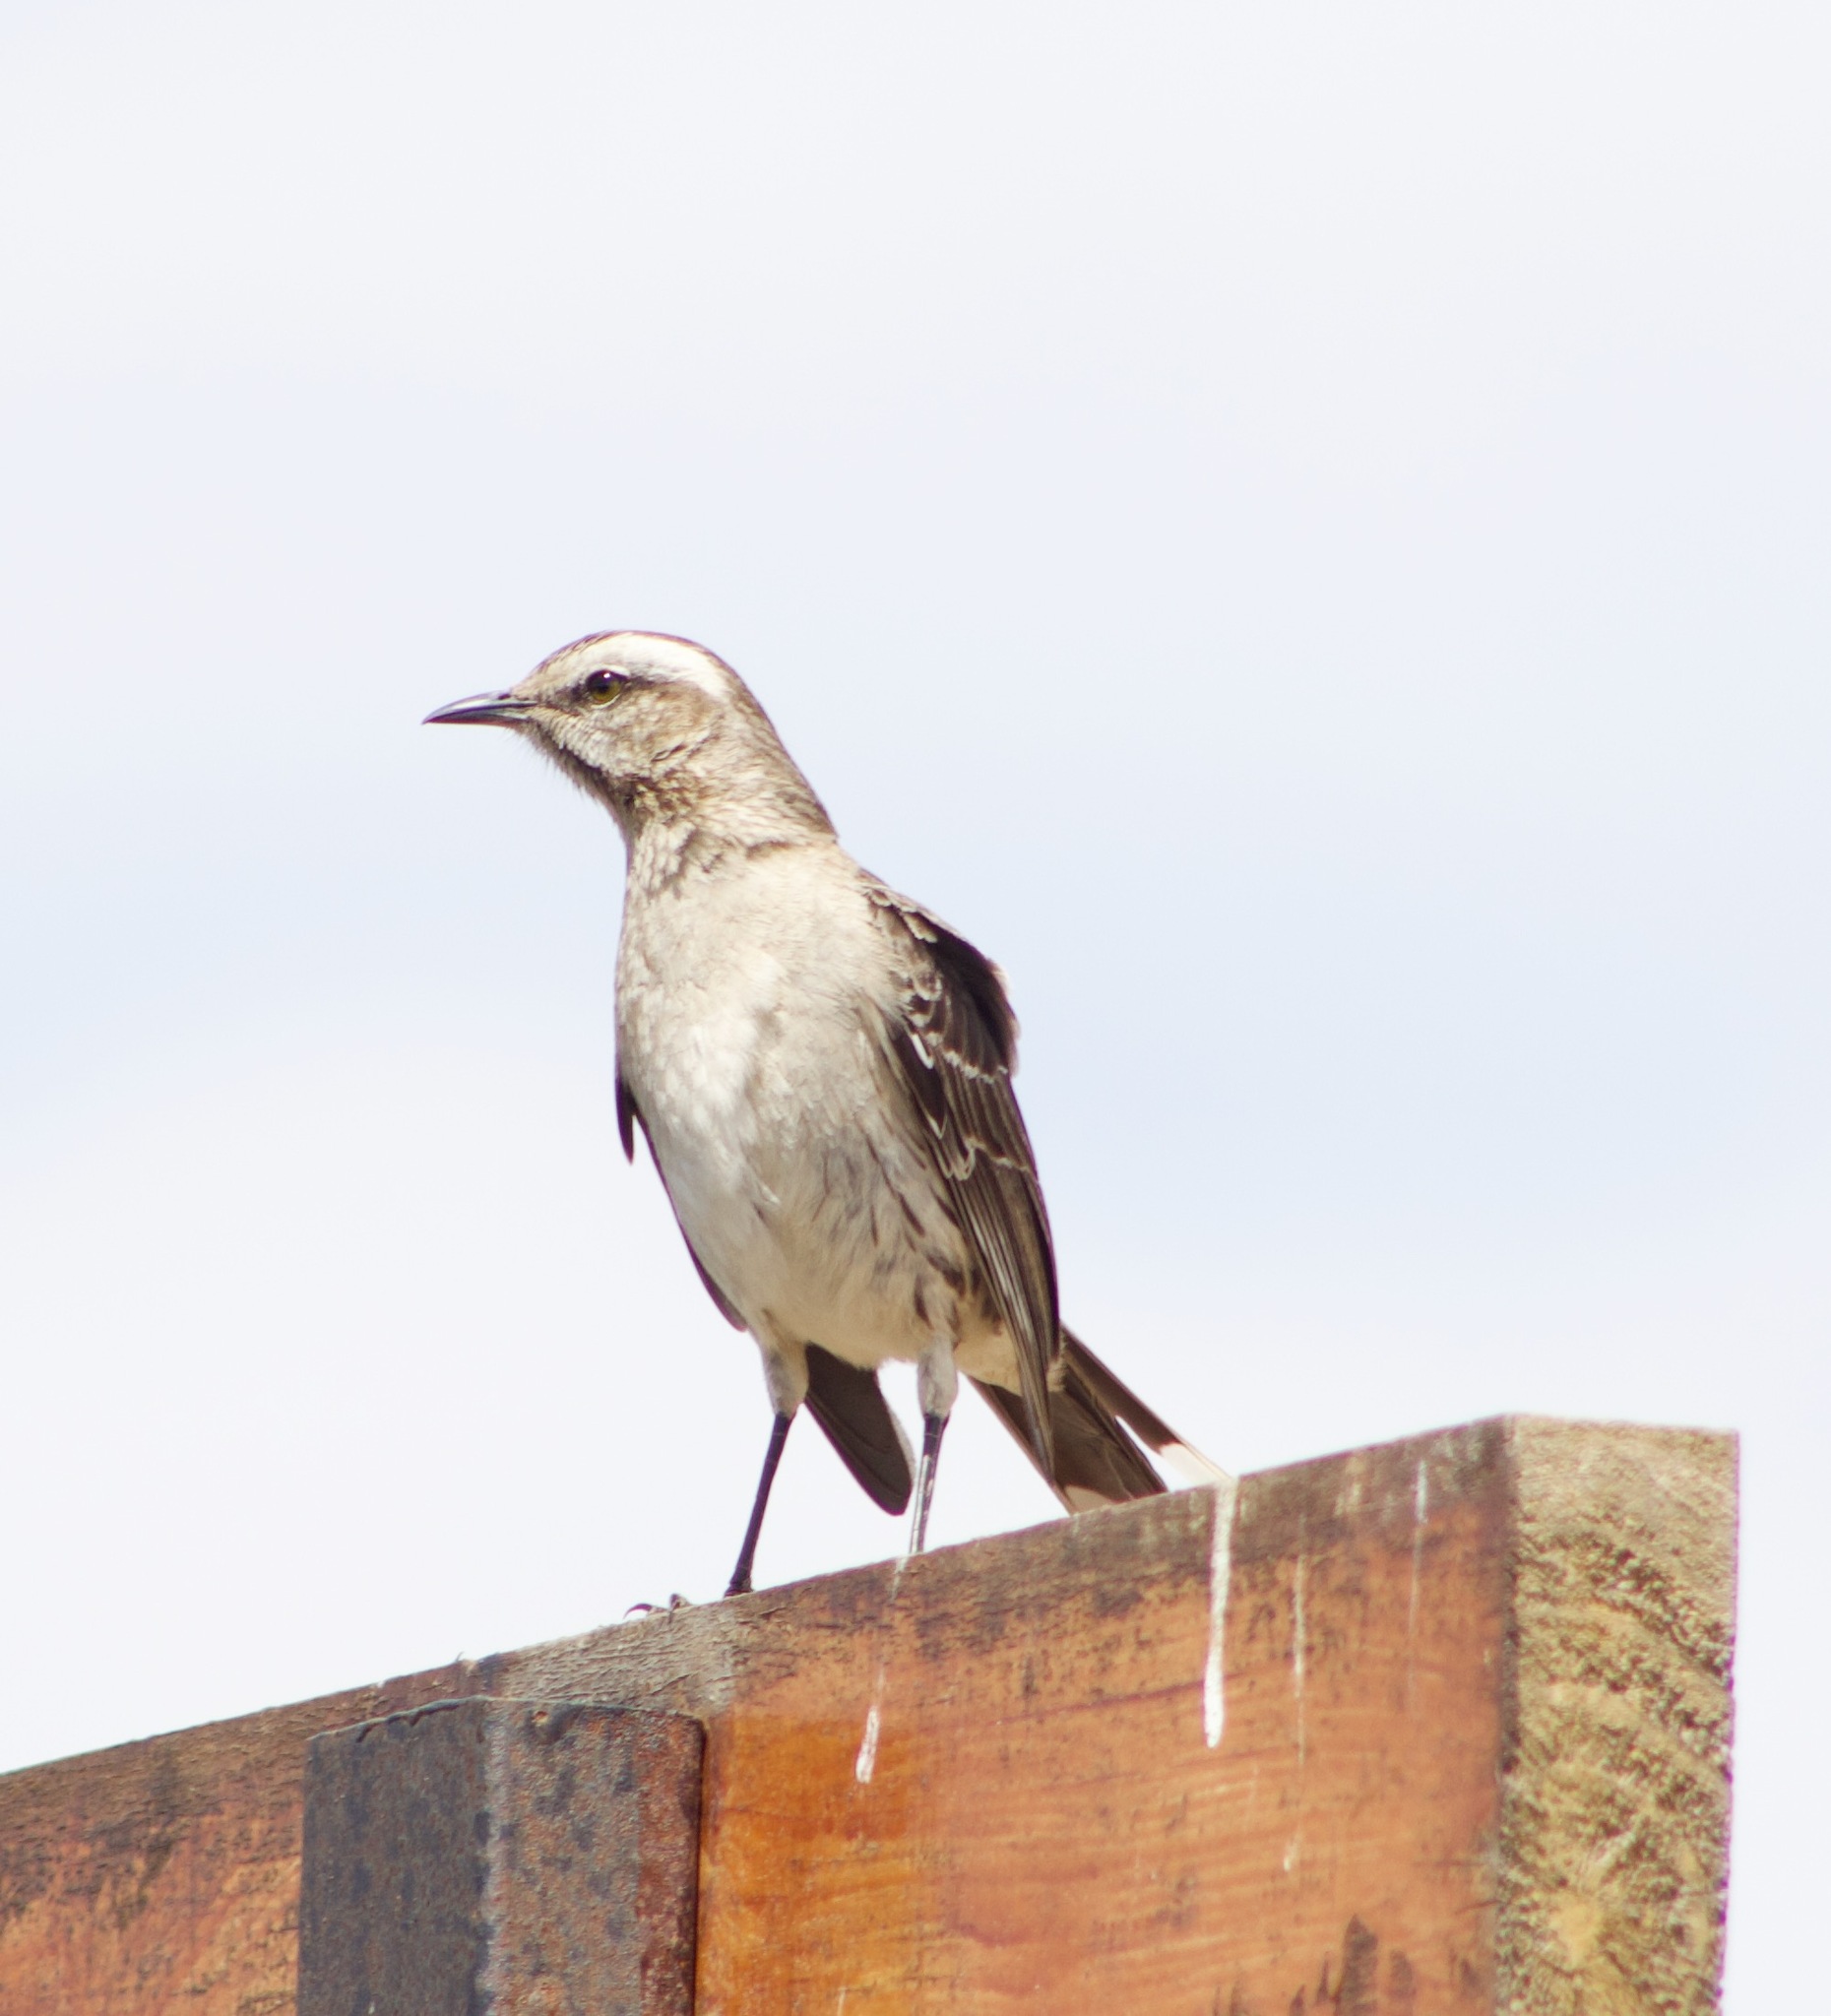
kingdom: Animalia
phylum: Chordata
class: Aves
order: Passeriformes
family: Mimidae
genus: Mimus
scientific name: Mimus thenca
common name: Chilean mockingbird
